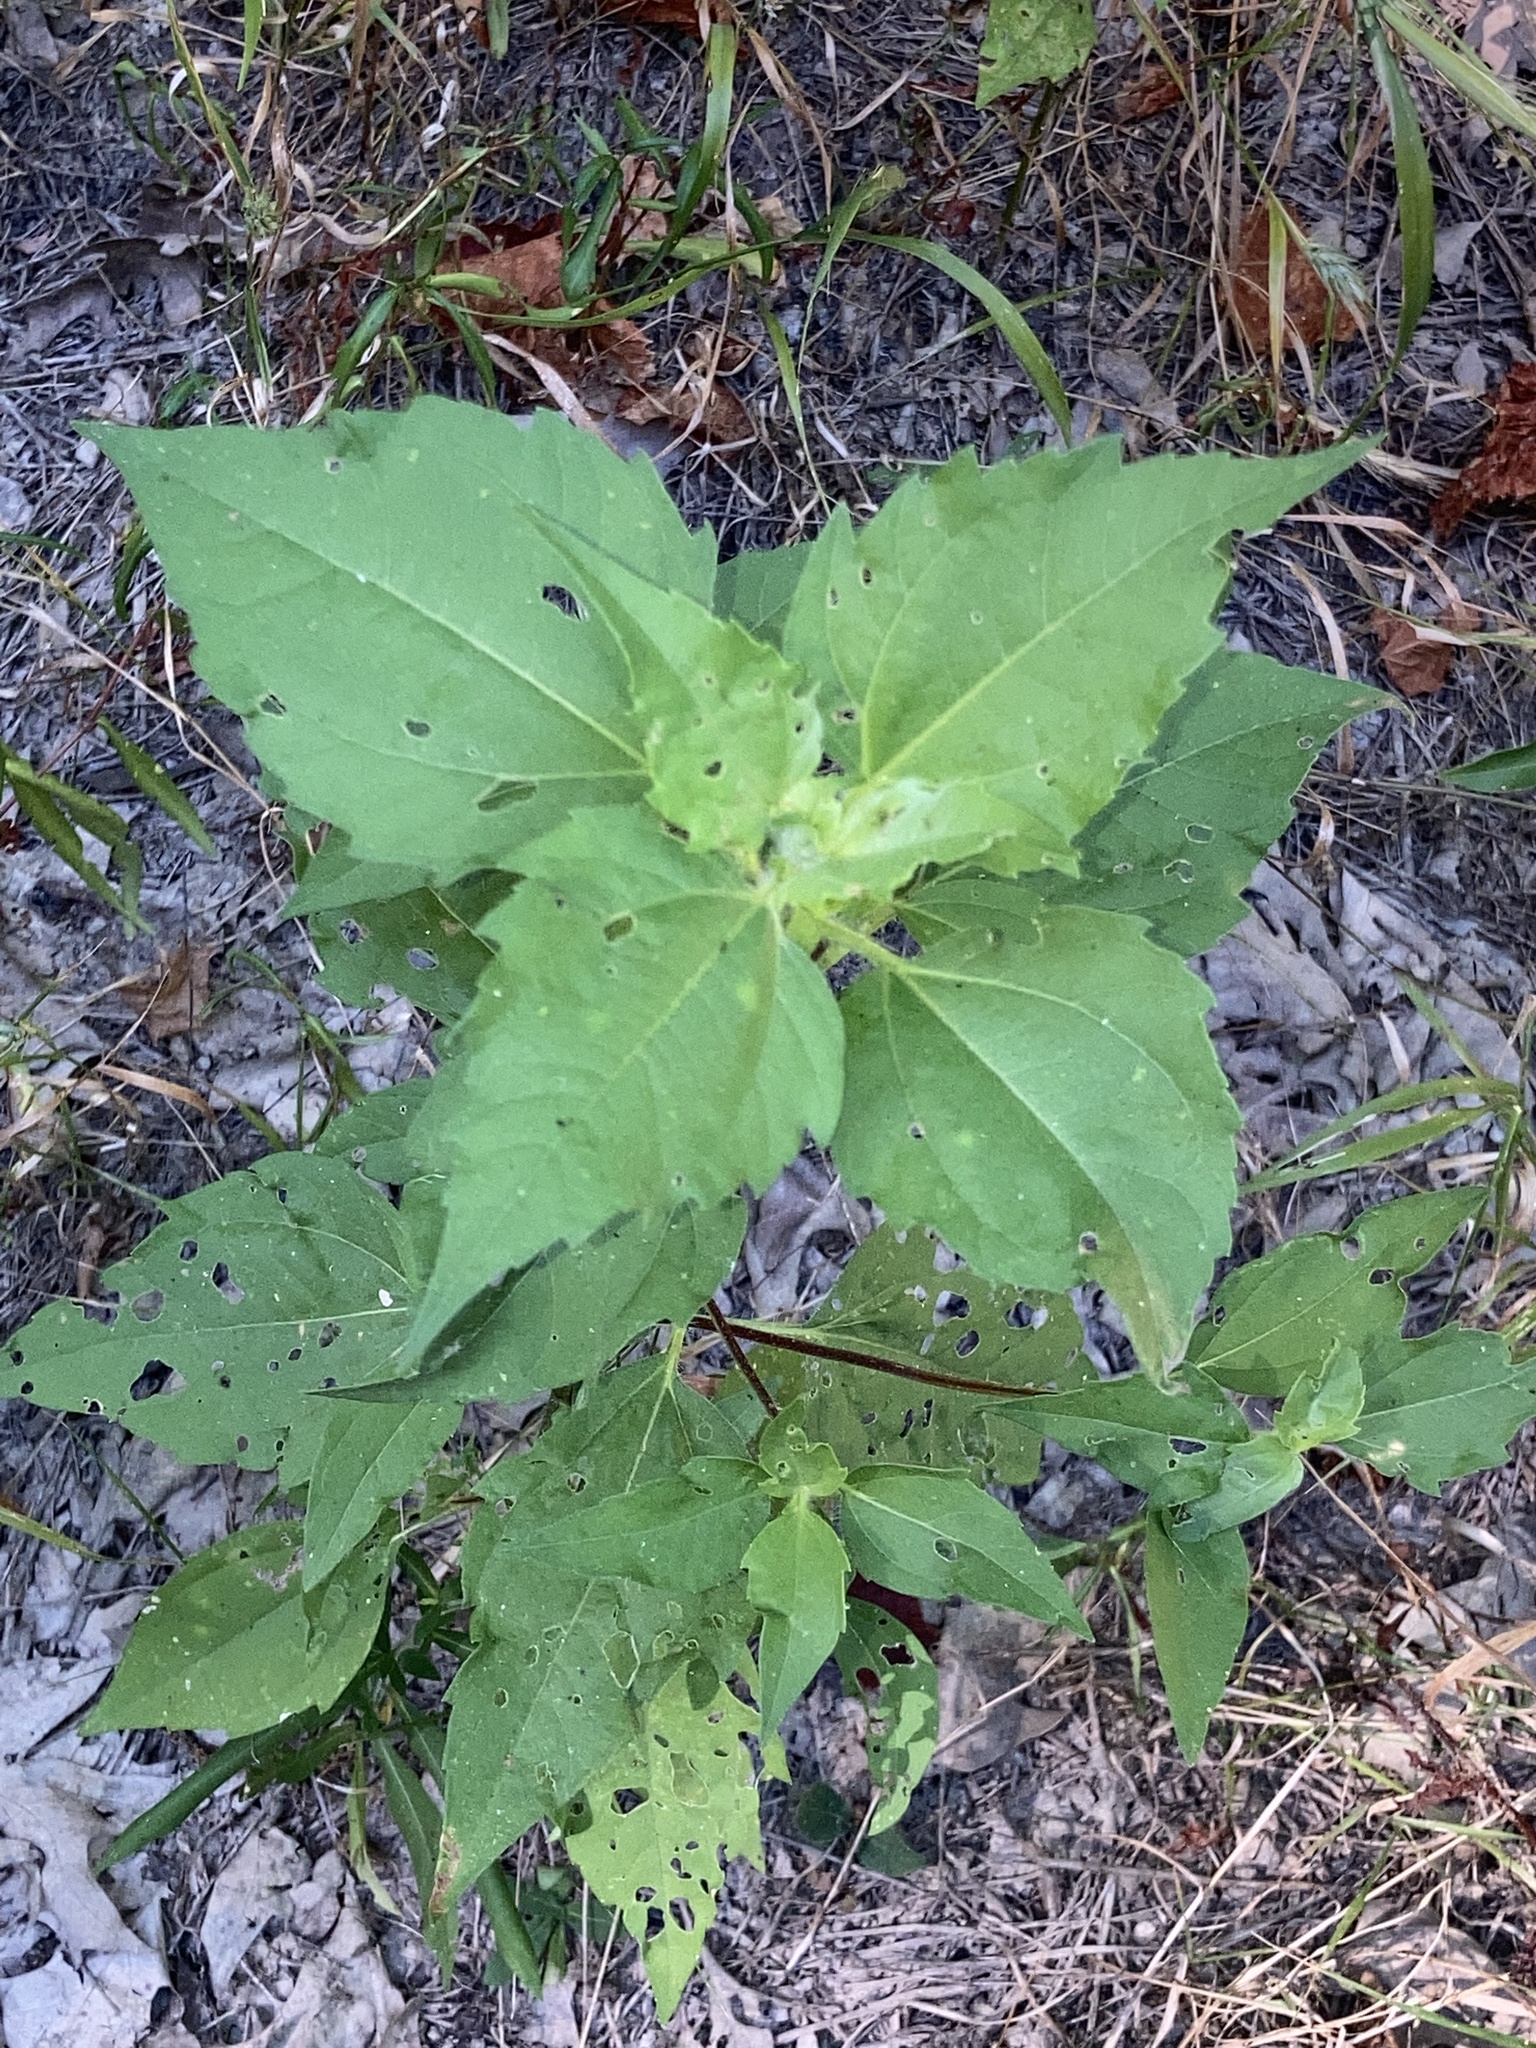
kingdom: Plantae
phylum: Tracheophyta
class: Magnoliopsida
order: Asterales
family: Asteraceae
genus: Iva
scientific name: Iva annua
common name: Marsh-elder
